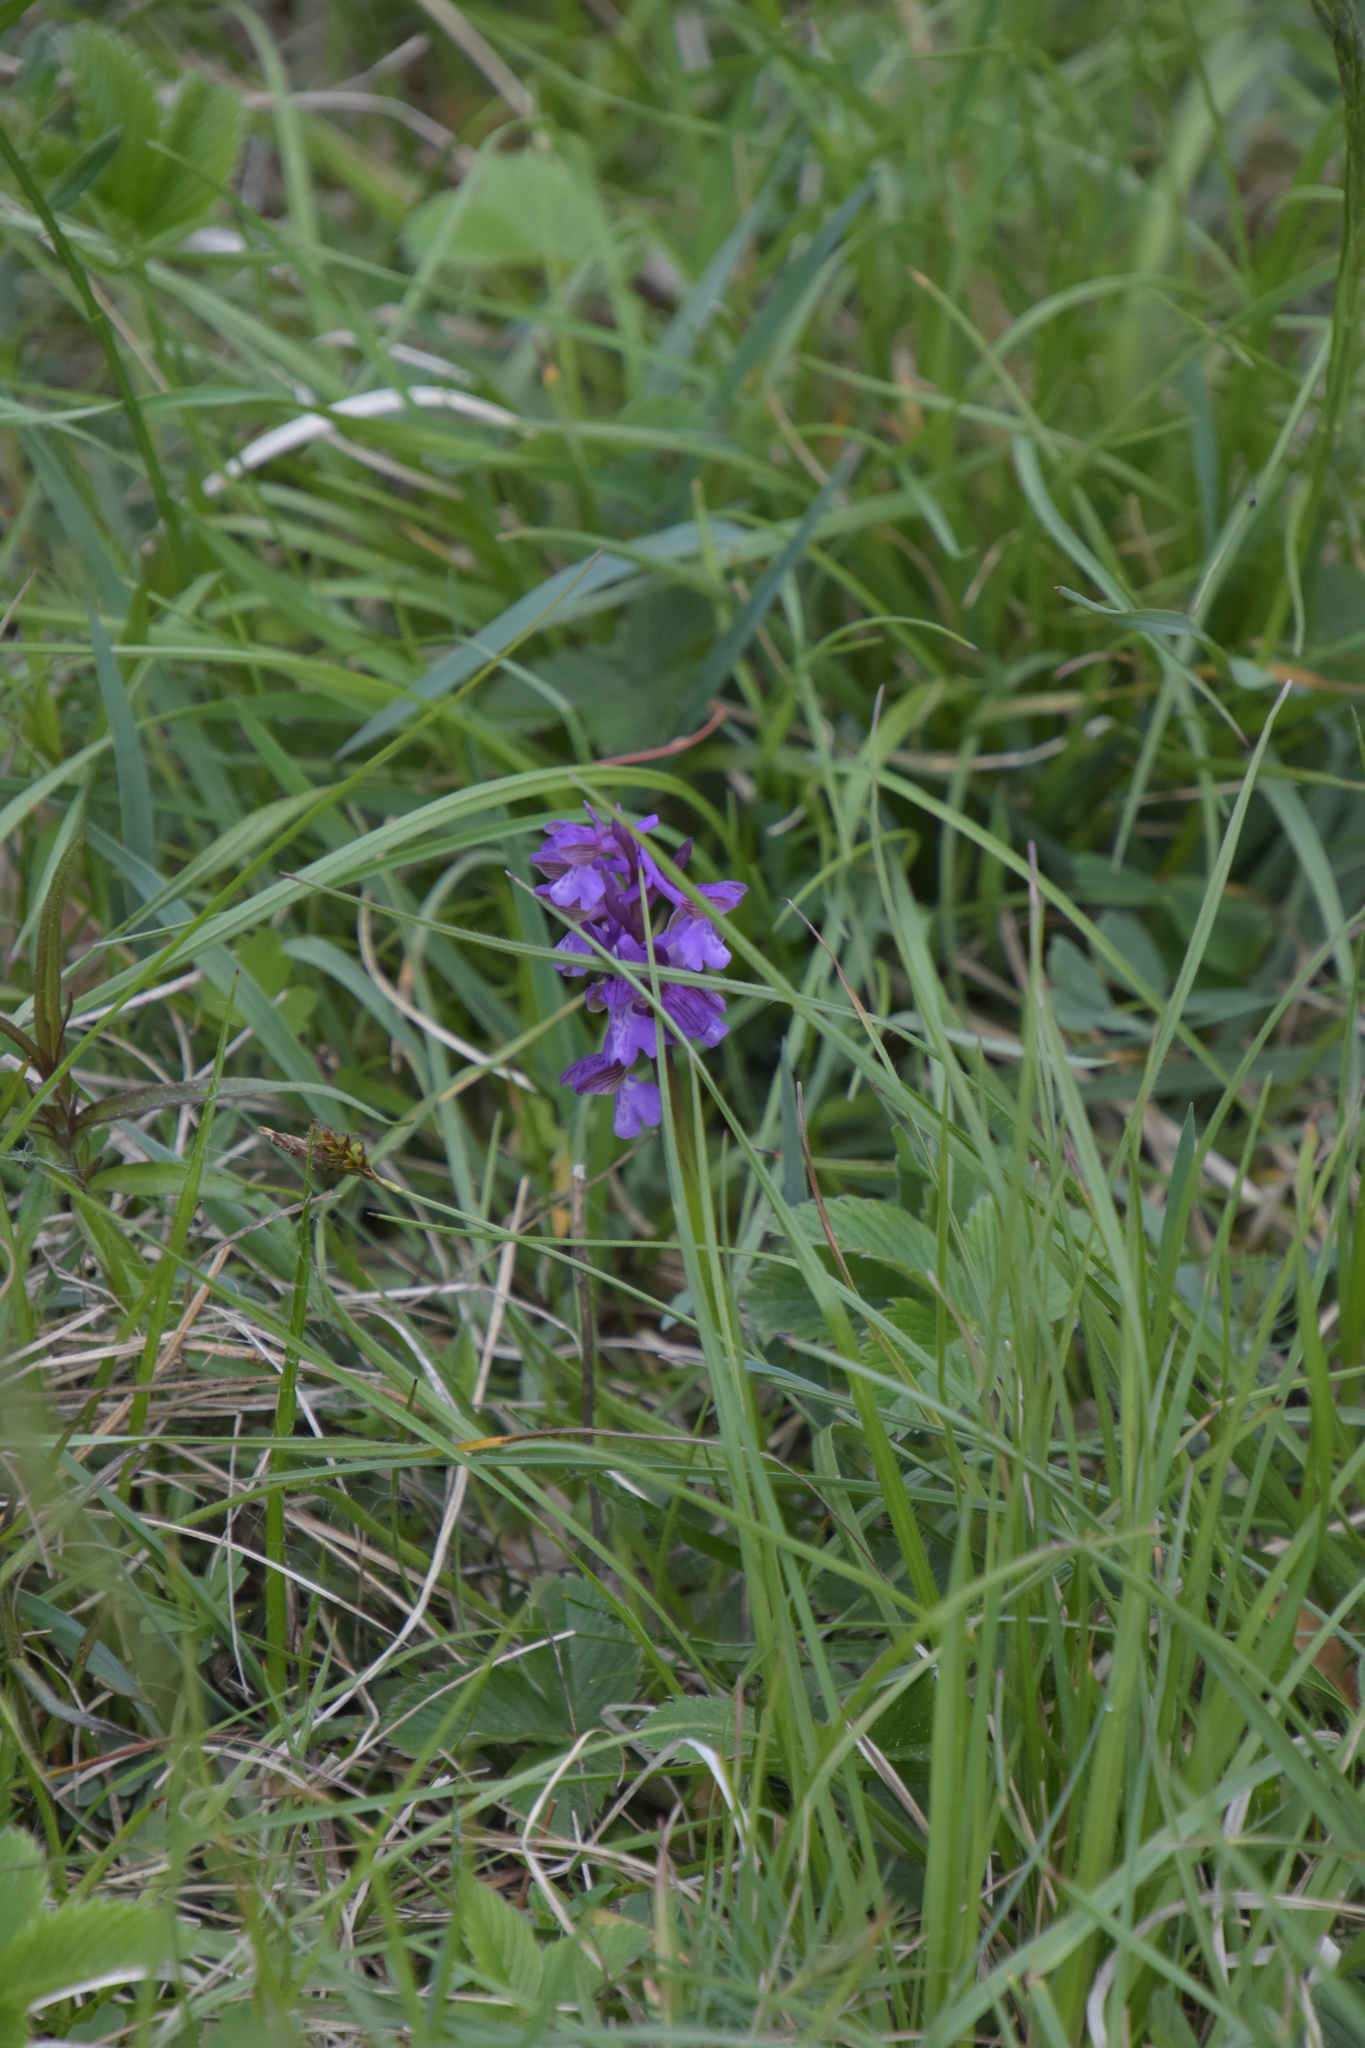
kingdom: Plantae
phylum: Tracheophyta
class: Liliopsida
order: Asparagales
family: Orchidaceae
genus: Anacamptis
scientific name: Anacamptis morio
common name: Green-winged orchid
